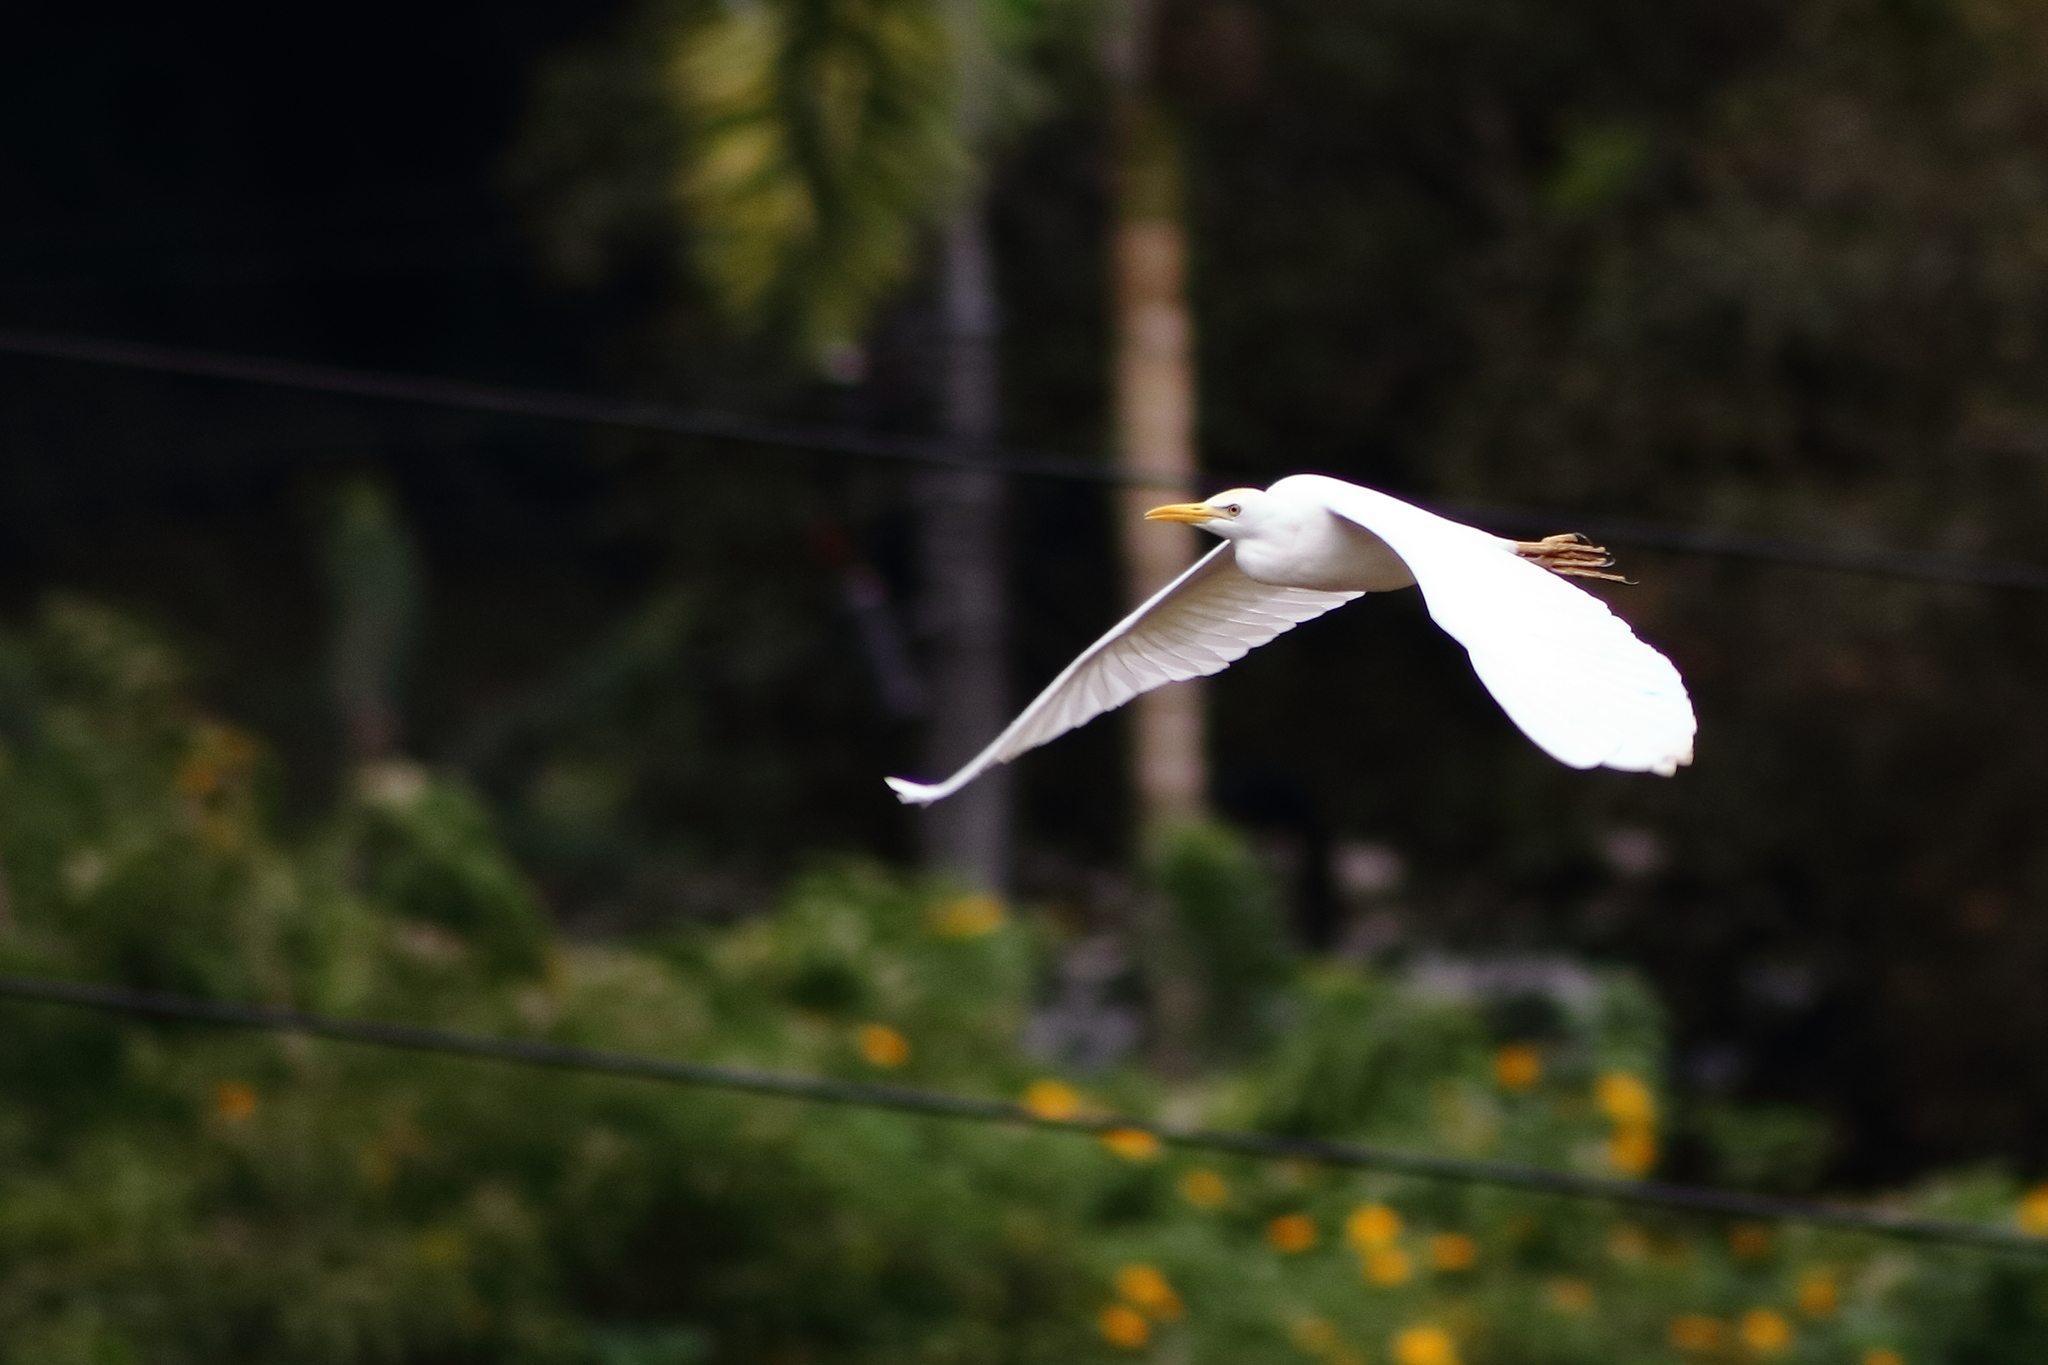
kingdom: Animalia
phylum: Chordata
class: Aves
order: Pelecaniformes
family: Ardeidae
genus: Bubulcus
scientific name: Bubulcus ibis
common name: Cattle egret
